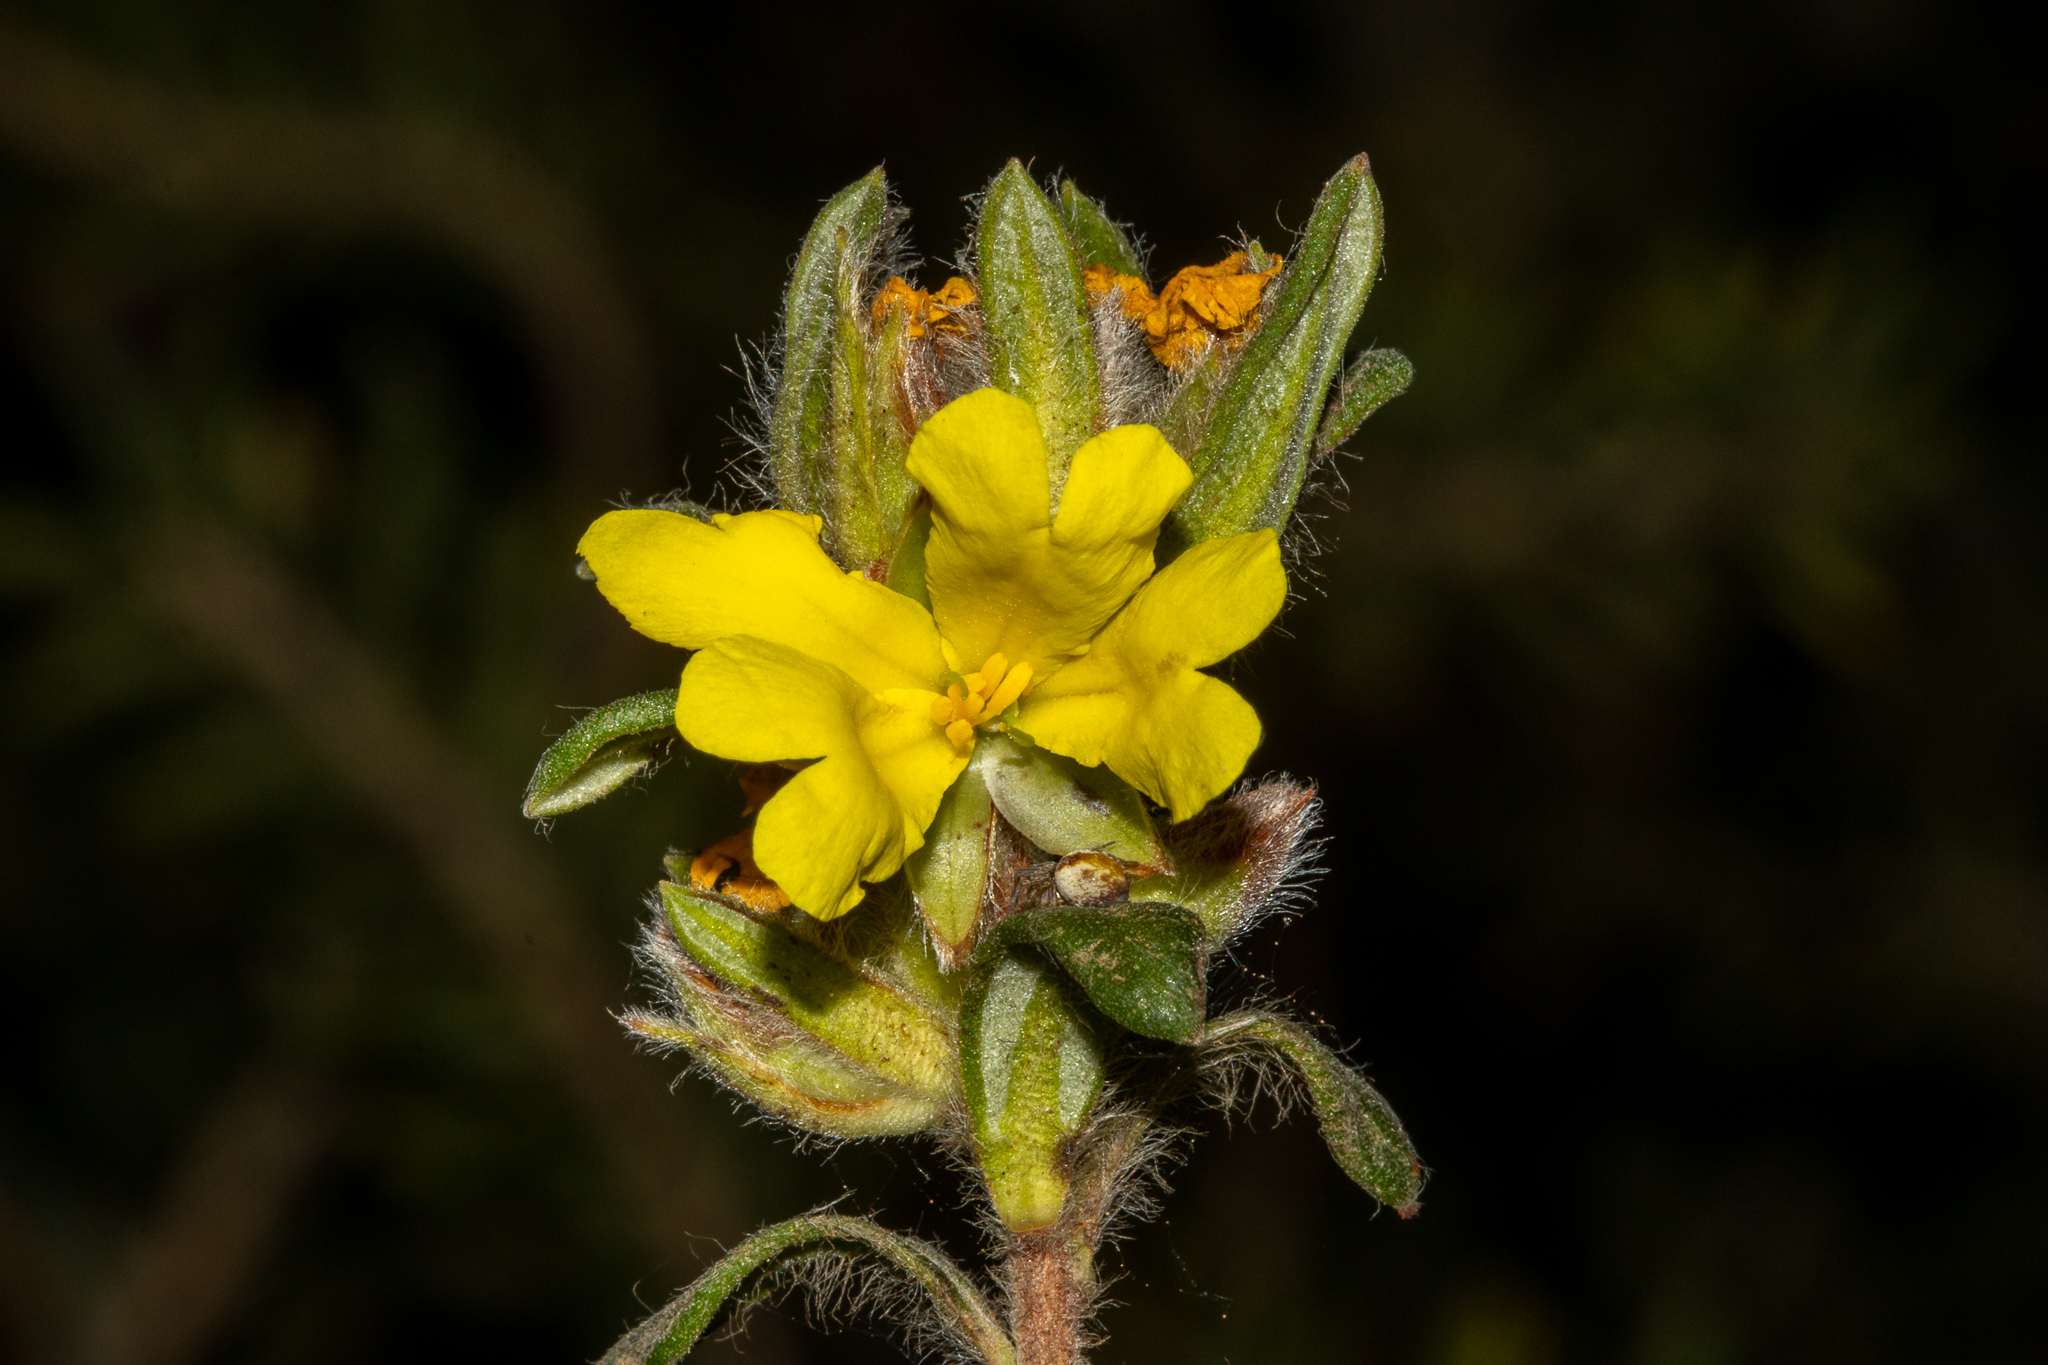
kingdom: Plantae
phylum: Tracheophyta
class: Magnoliopsida
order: Dilleniales
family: Dilleniaceae
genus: Hibbertia
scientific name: Hibbertia villifera
